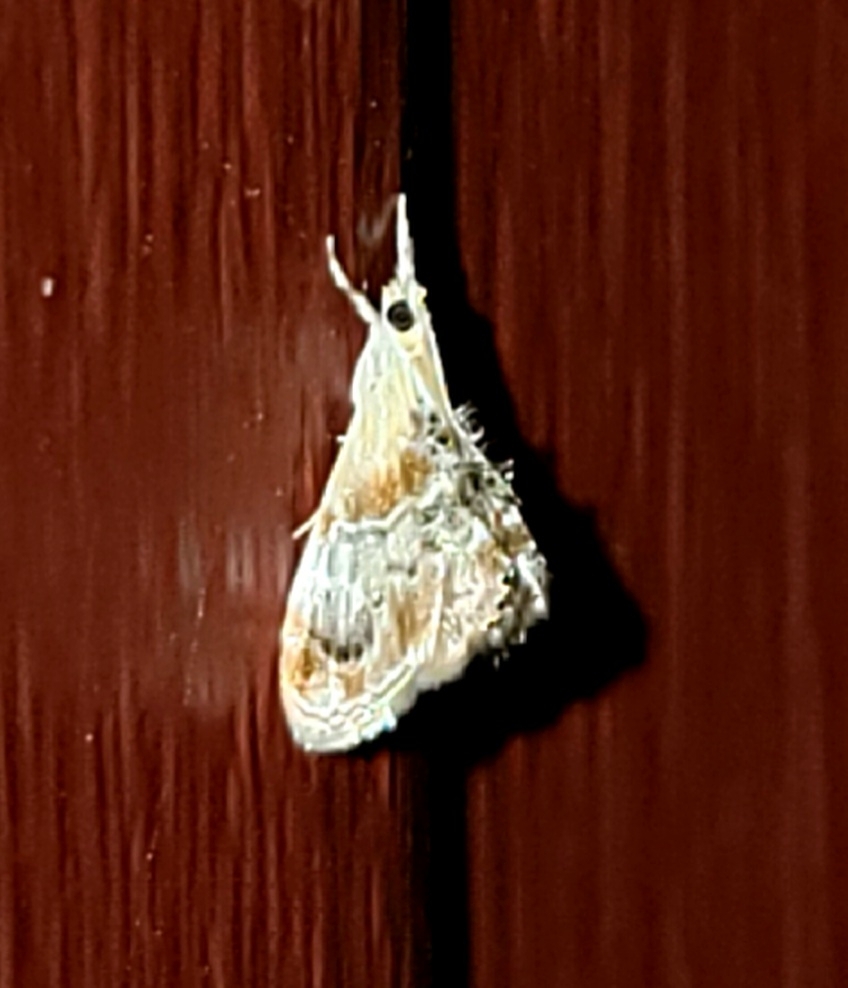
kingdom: Animalia
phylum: Arthropoda
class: Insecta
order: Lepidoptera
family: Crambidae
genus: Dicymolomia
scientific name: Dicymolomia julianalis
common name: Julia's dicymolomia moth
